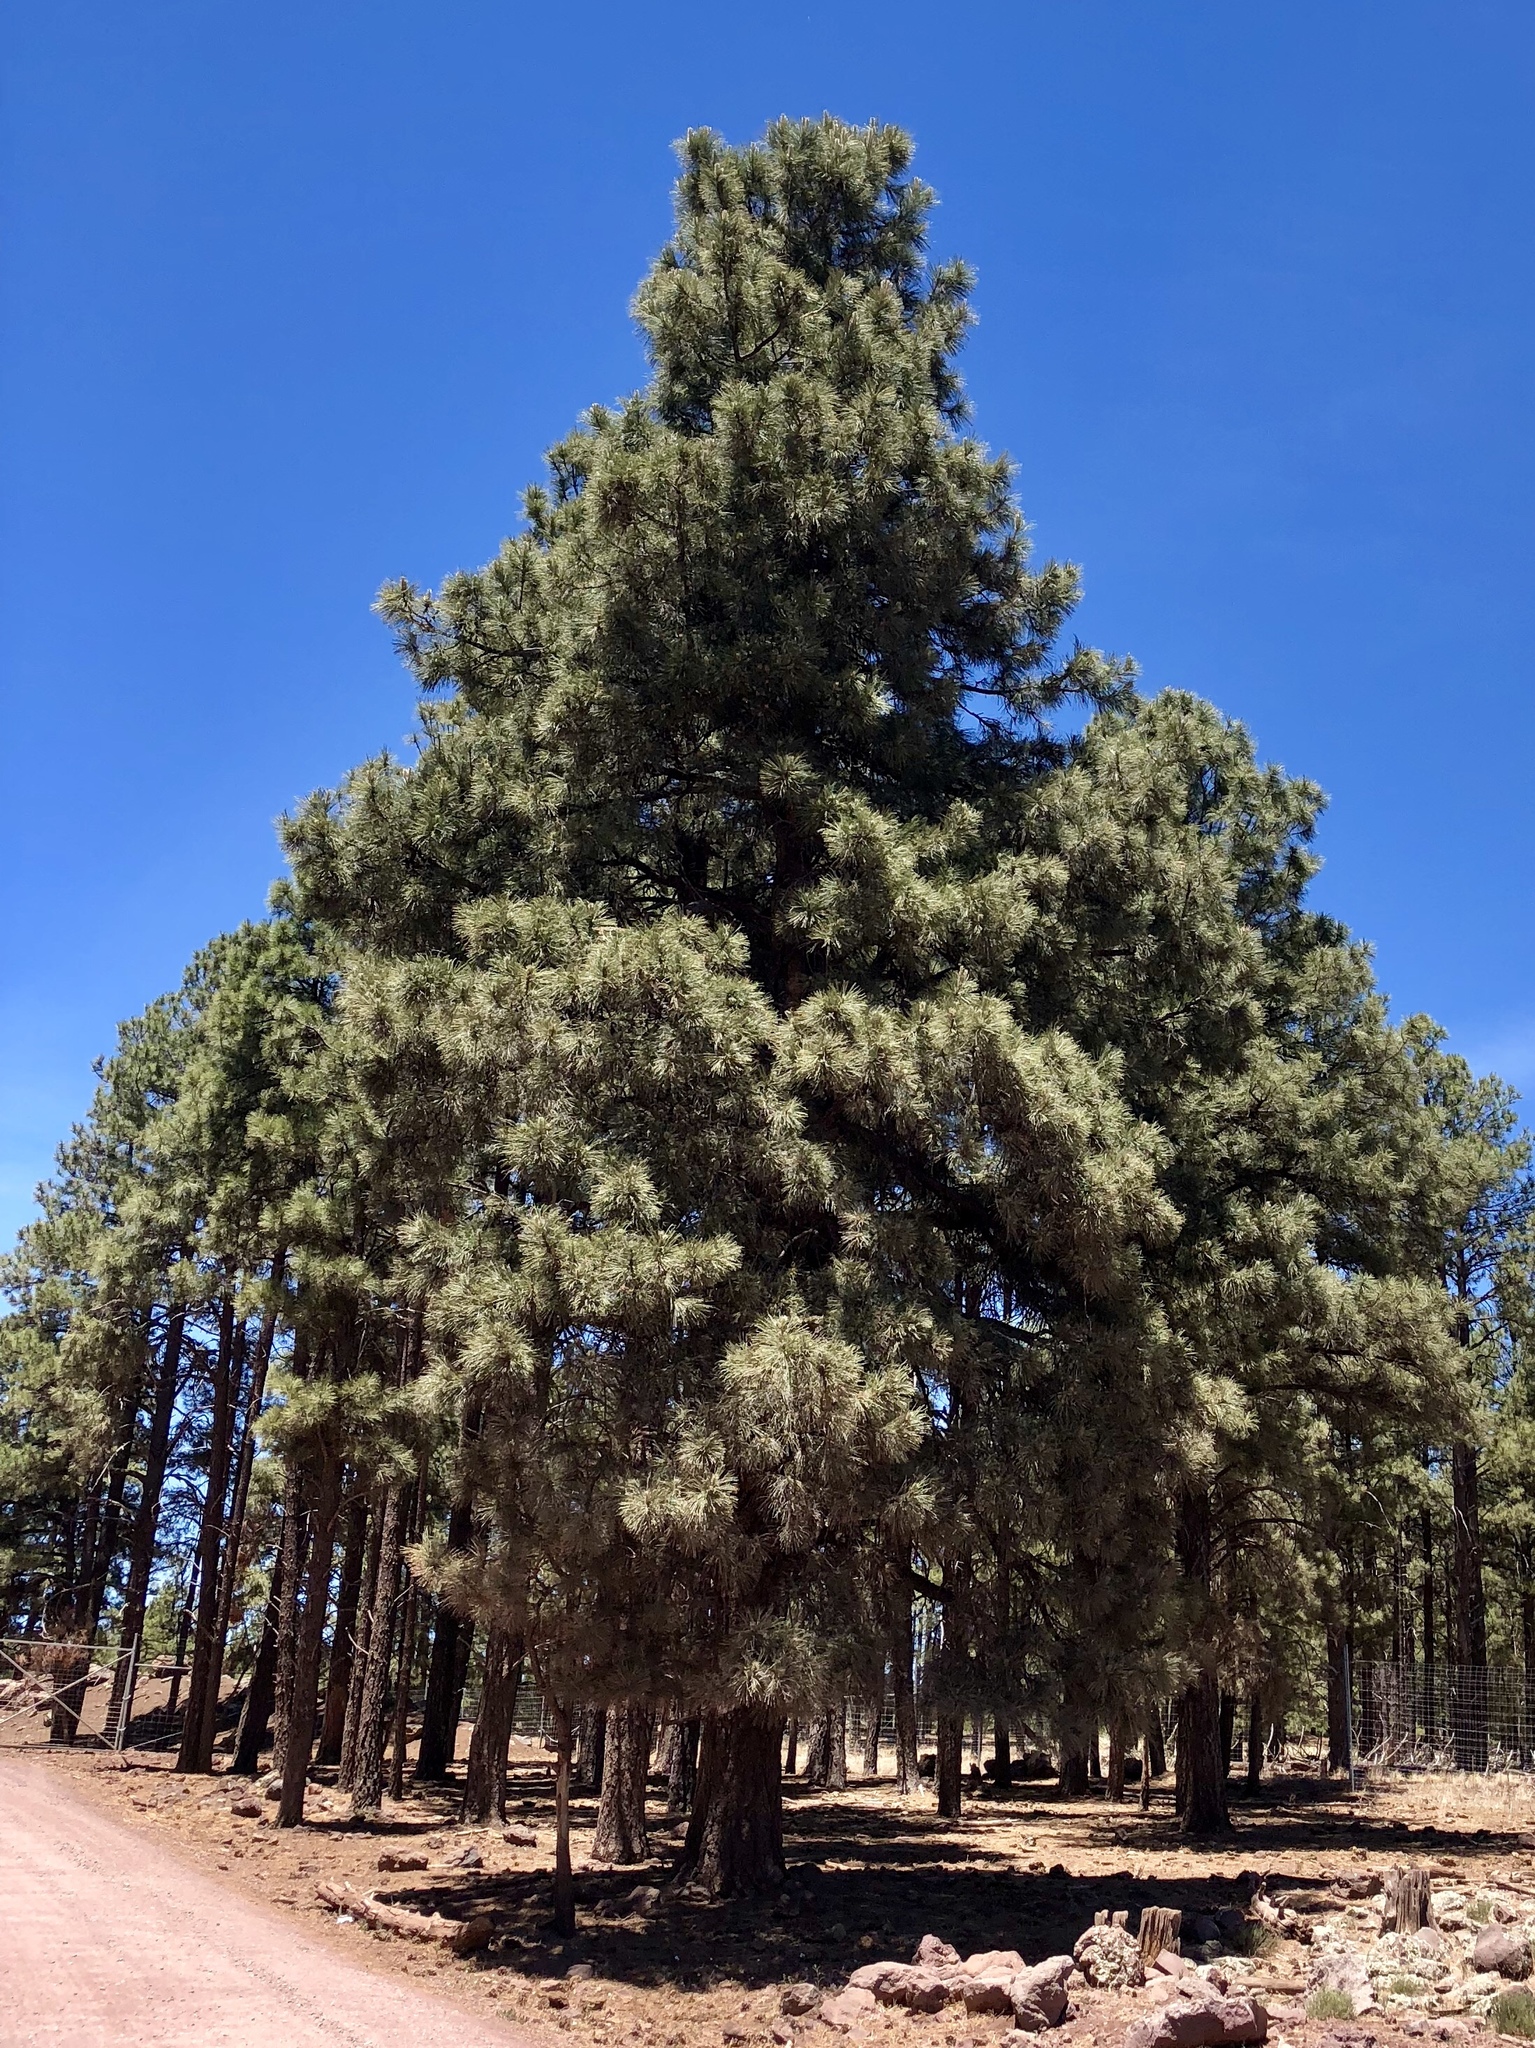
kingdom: Plantae
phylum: Tracheophyta
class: Pinopsida
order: Pinales
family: Pinaceae
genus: Pinus
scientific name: Pinus ponderosa
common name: Western yellow-pine
